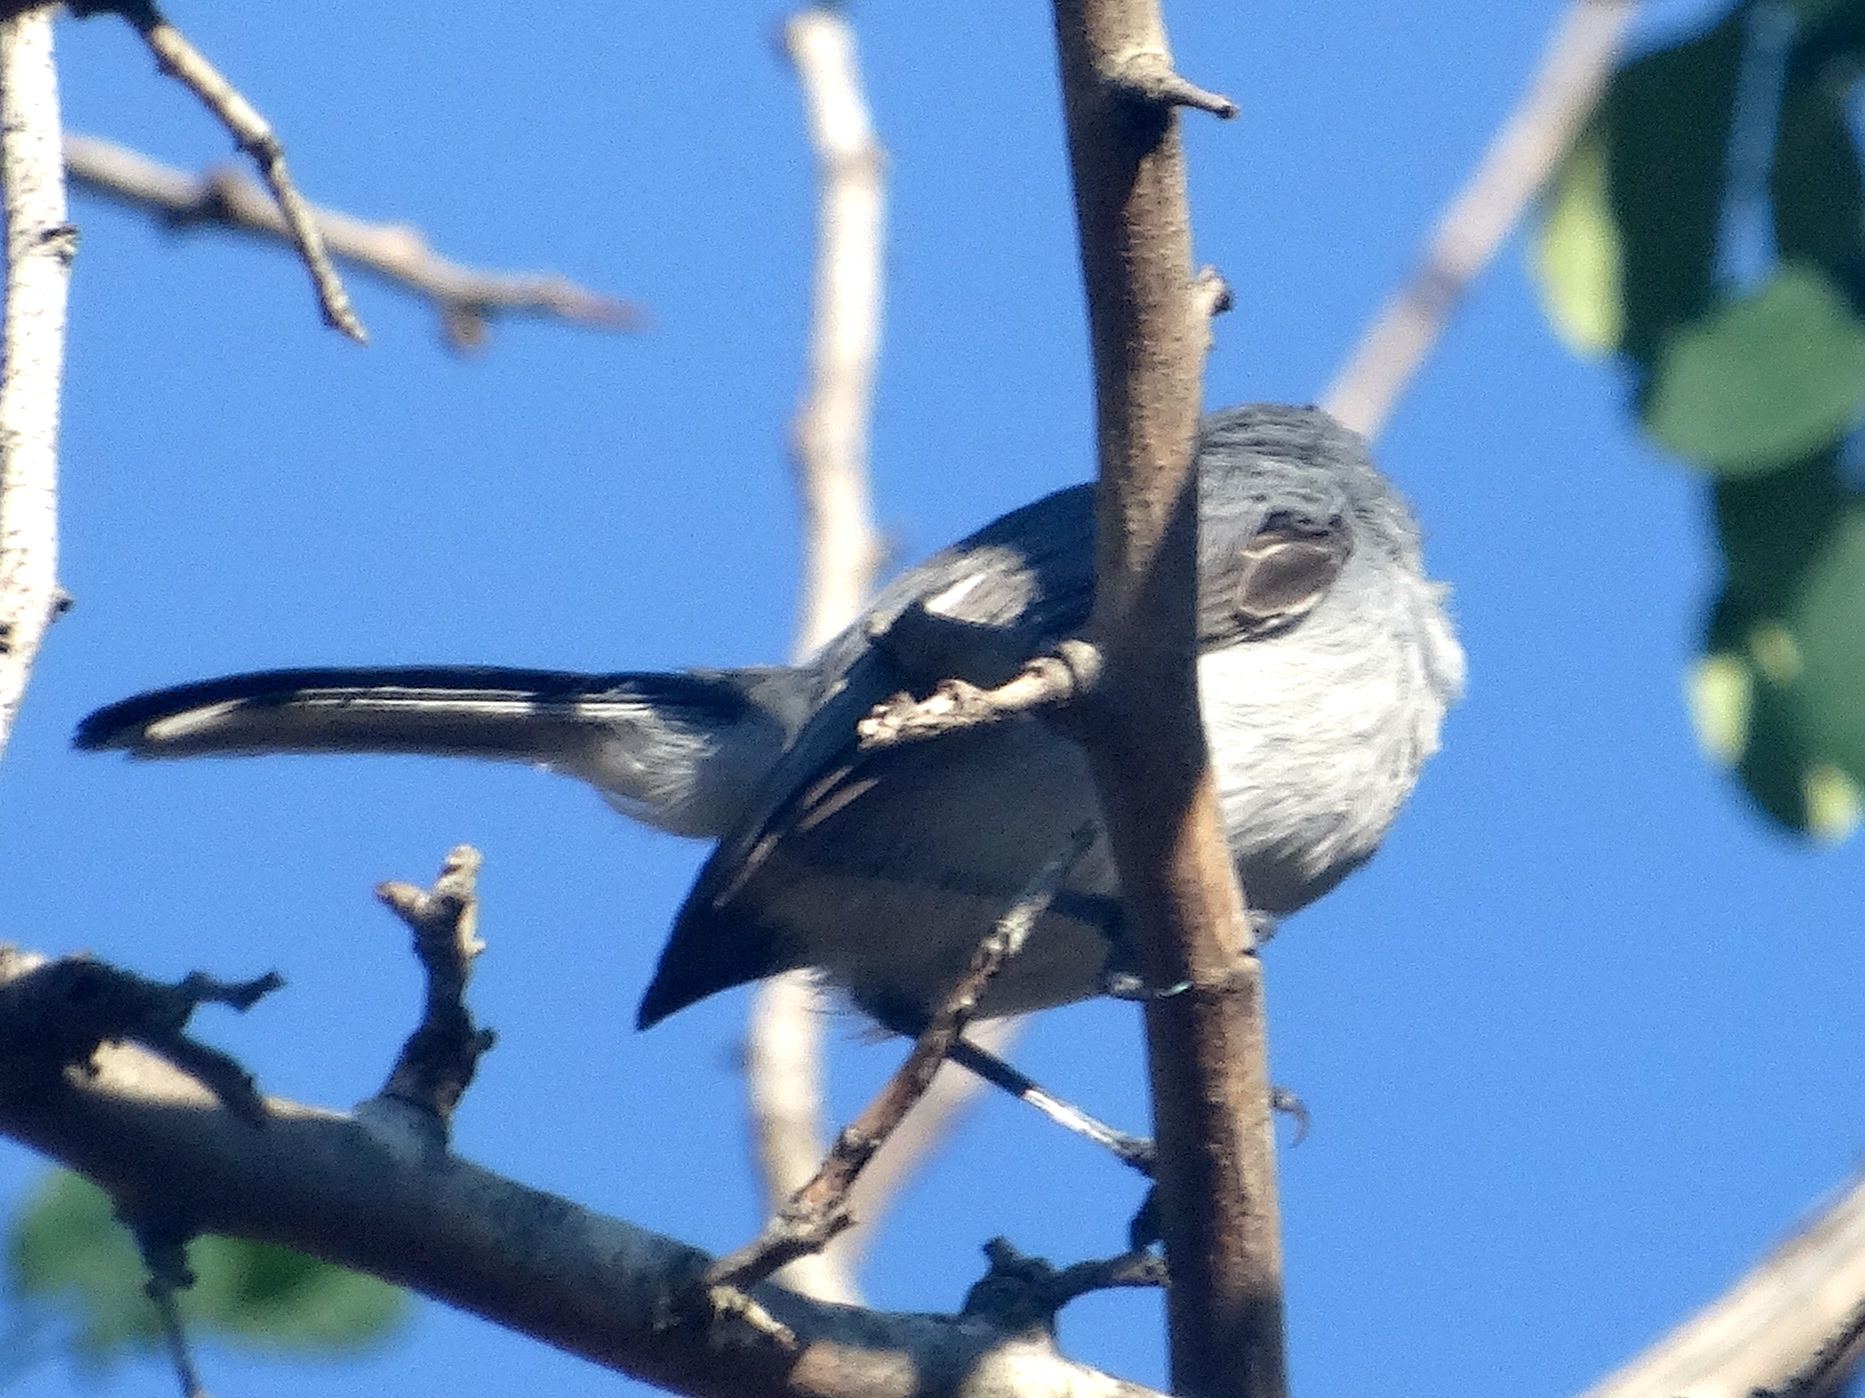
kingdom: Animalia
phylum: Chordata
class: Aves
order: Passeriformes
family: Polioptilidae
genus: Polioptila
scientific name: Polioptila caerulea
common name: Blue-gray gnatcatcher
